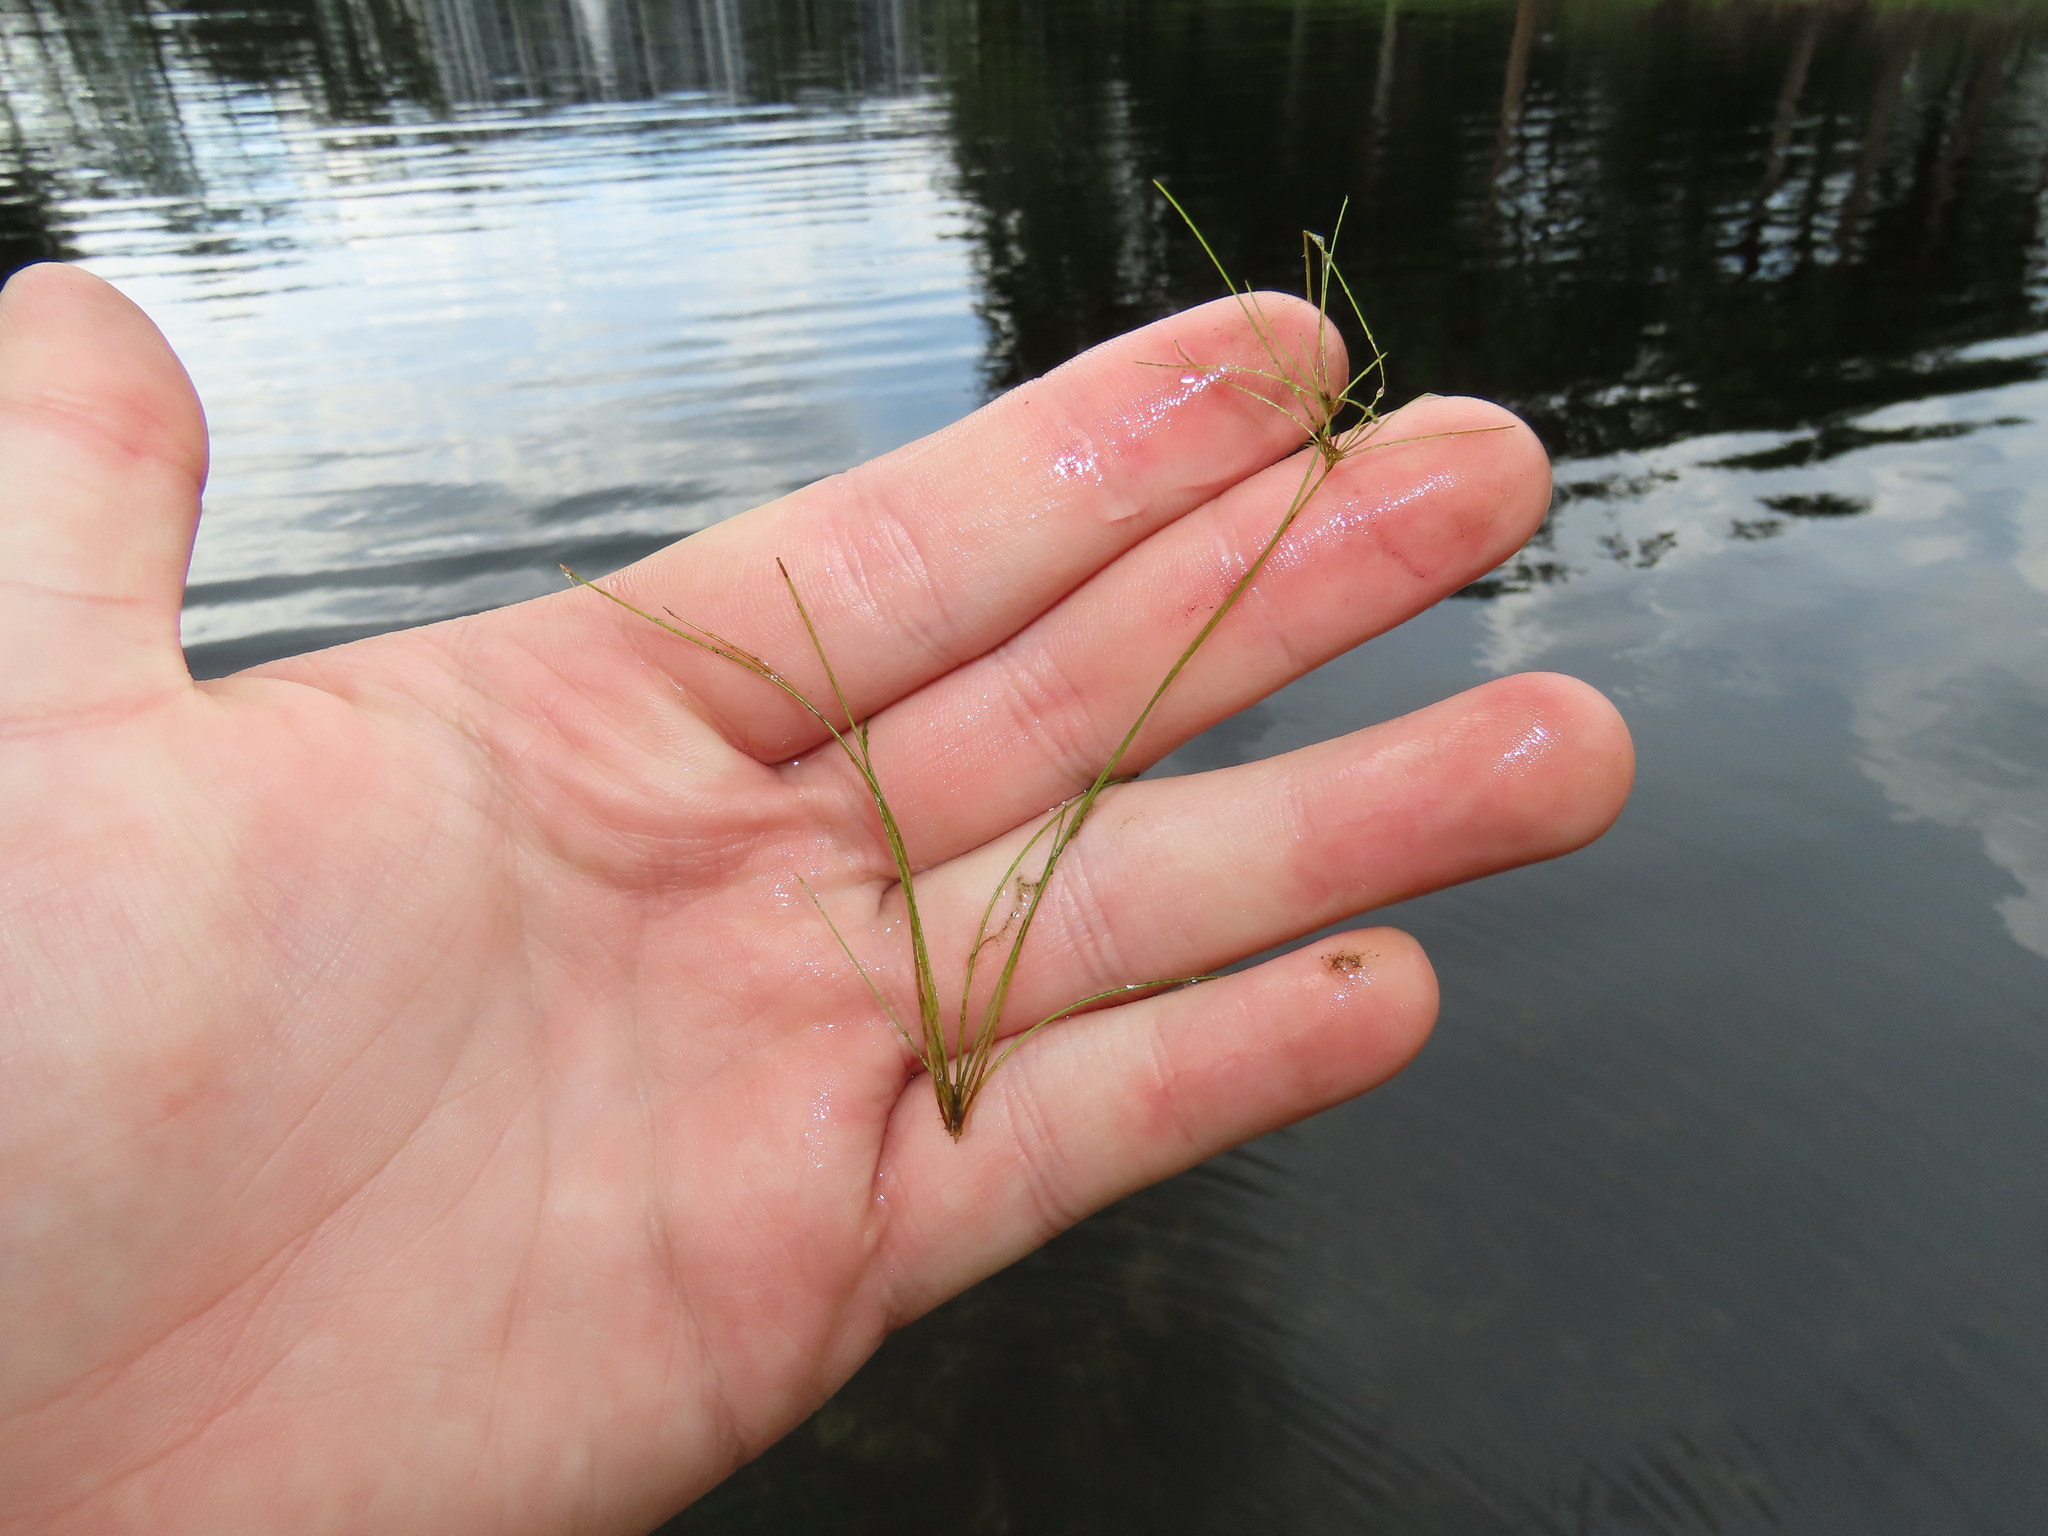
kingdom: Plantae
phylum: Tracheophyta
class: Liliopsida
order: Poales
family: Cyperaceae
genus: Eleocharis
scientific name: Eleocharis vivipara
